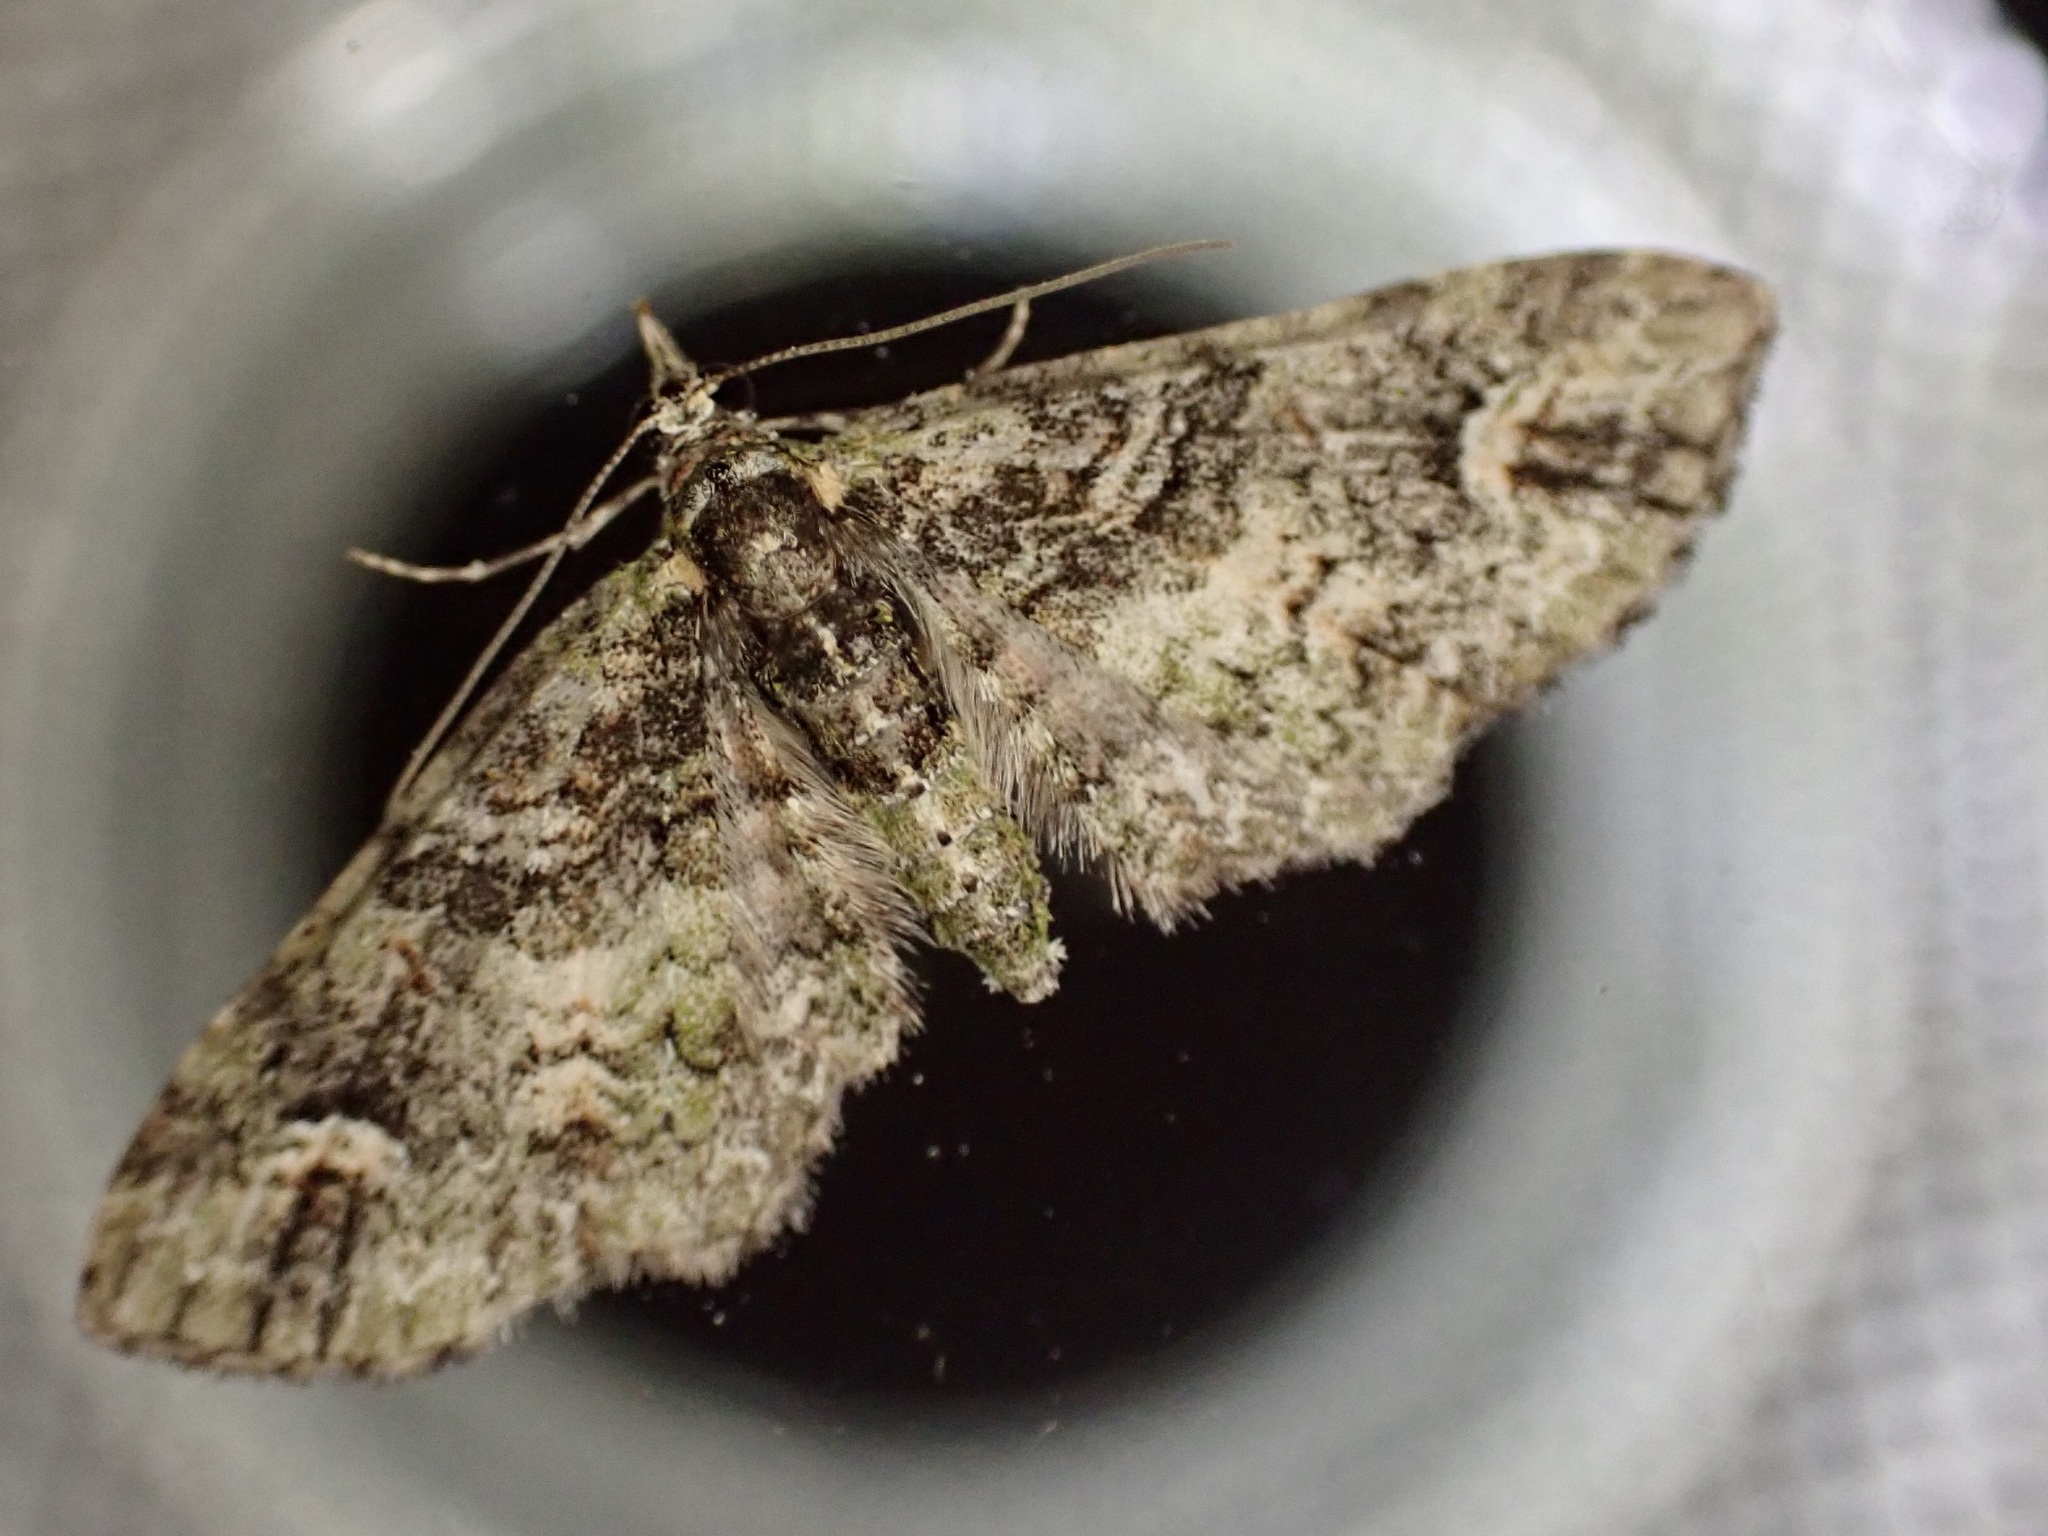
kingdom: Animalia
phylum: Arthropoda
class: Insecta
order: Lepidoptera
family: Geometridae
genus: Idaea
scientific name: Idaea mutanda
